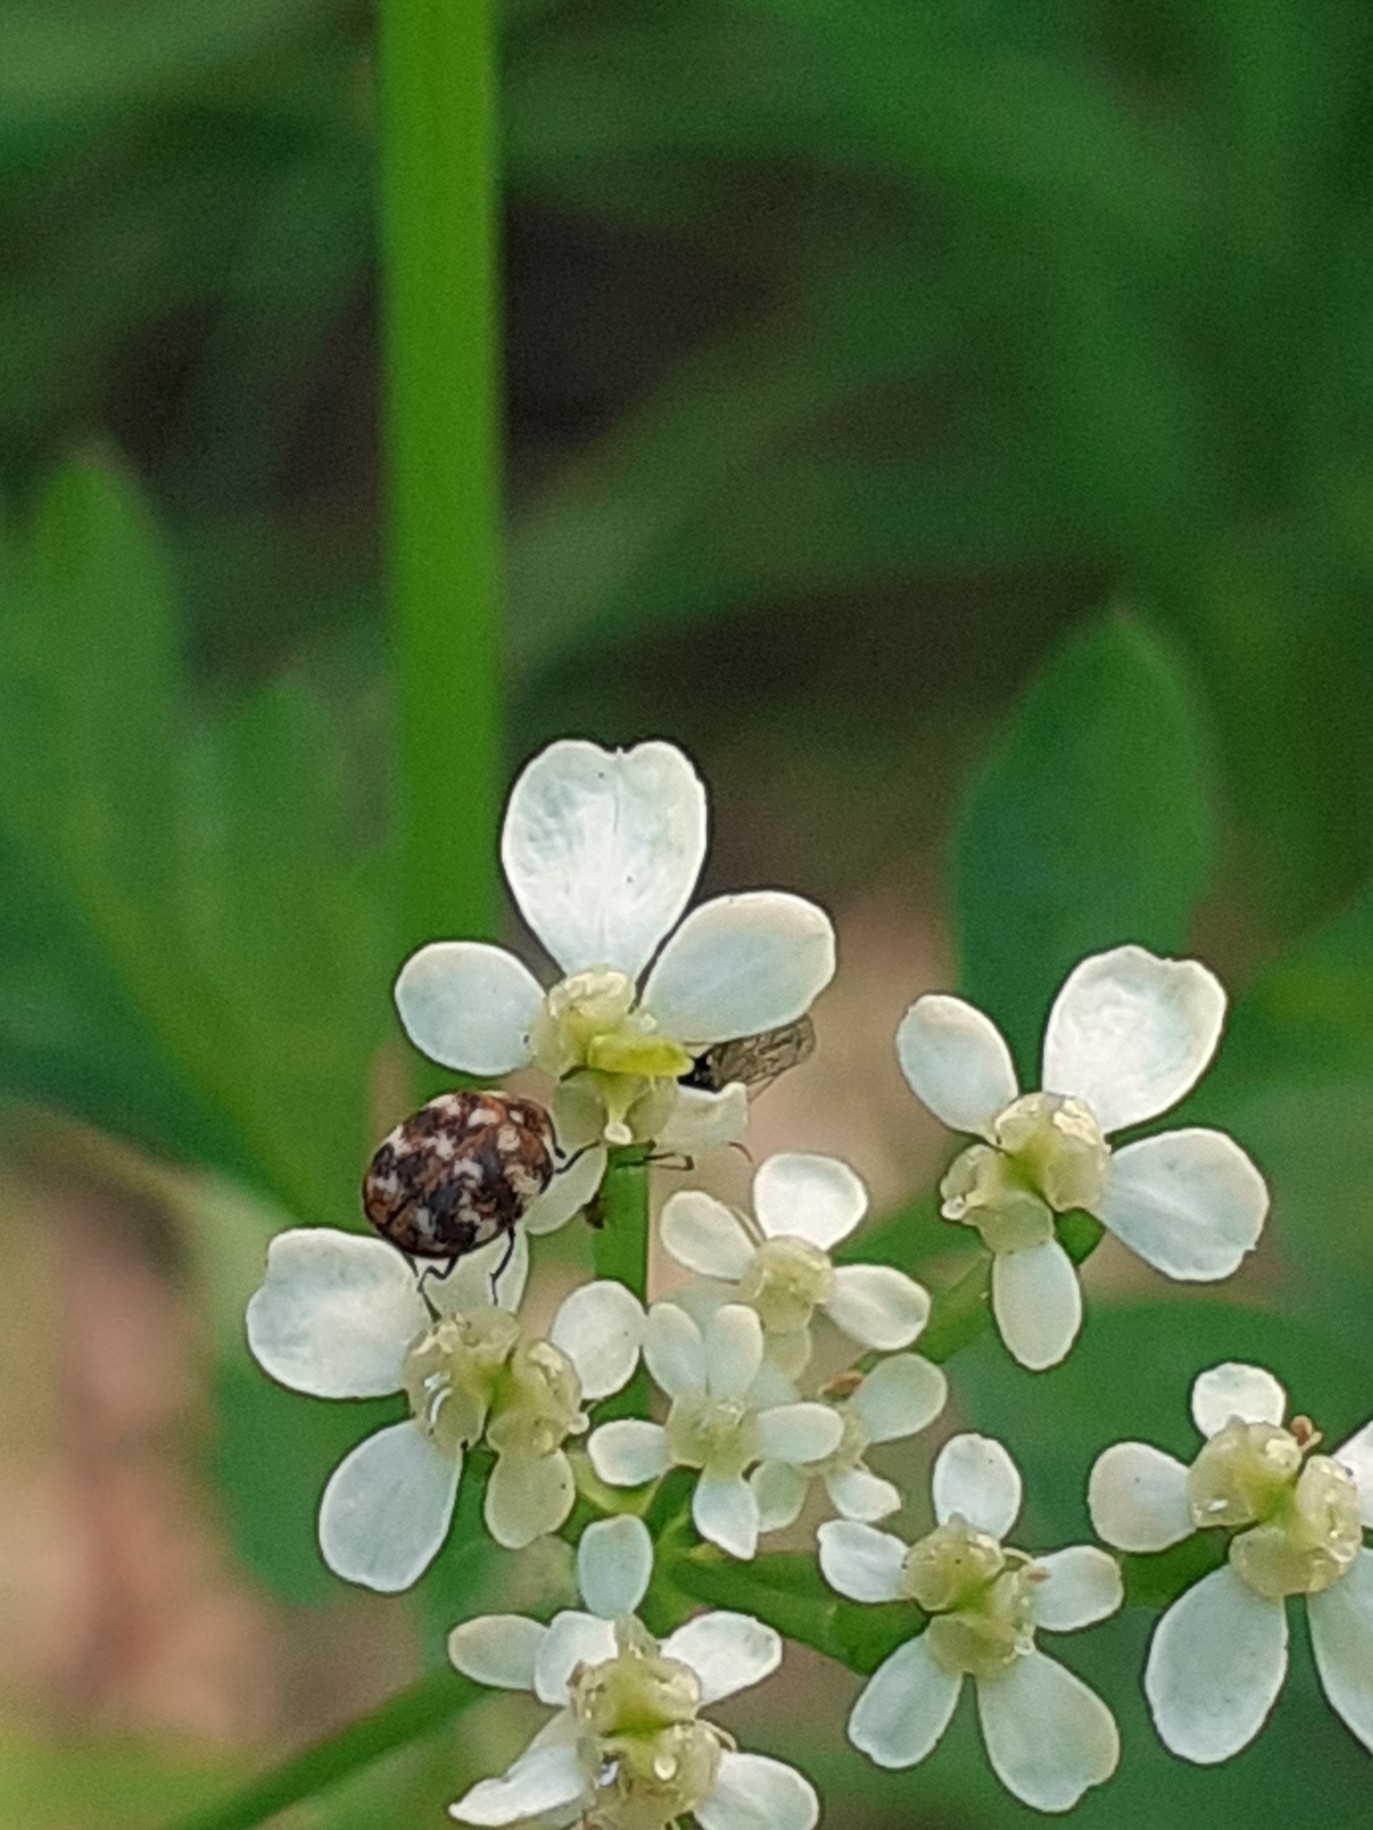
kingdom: Animalia
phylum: Arthropoda
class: Insecta
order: Coleoptera
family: Dermestidae
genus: Anthrenus
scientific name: Anthrenus verbasci
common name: Varied carpet beetle
